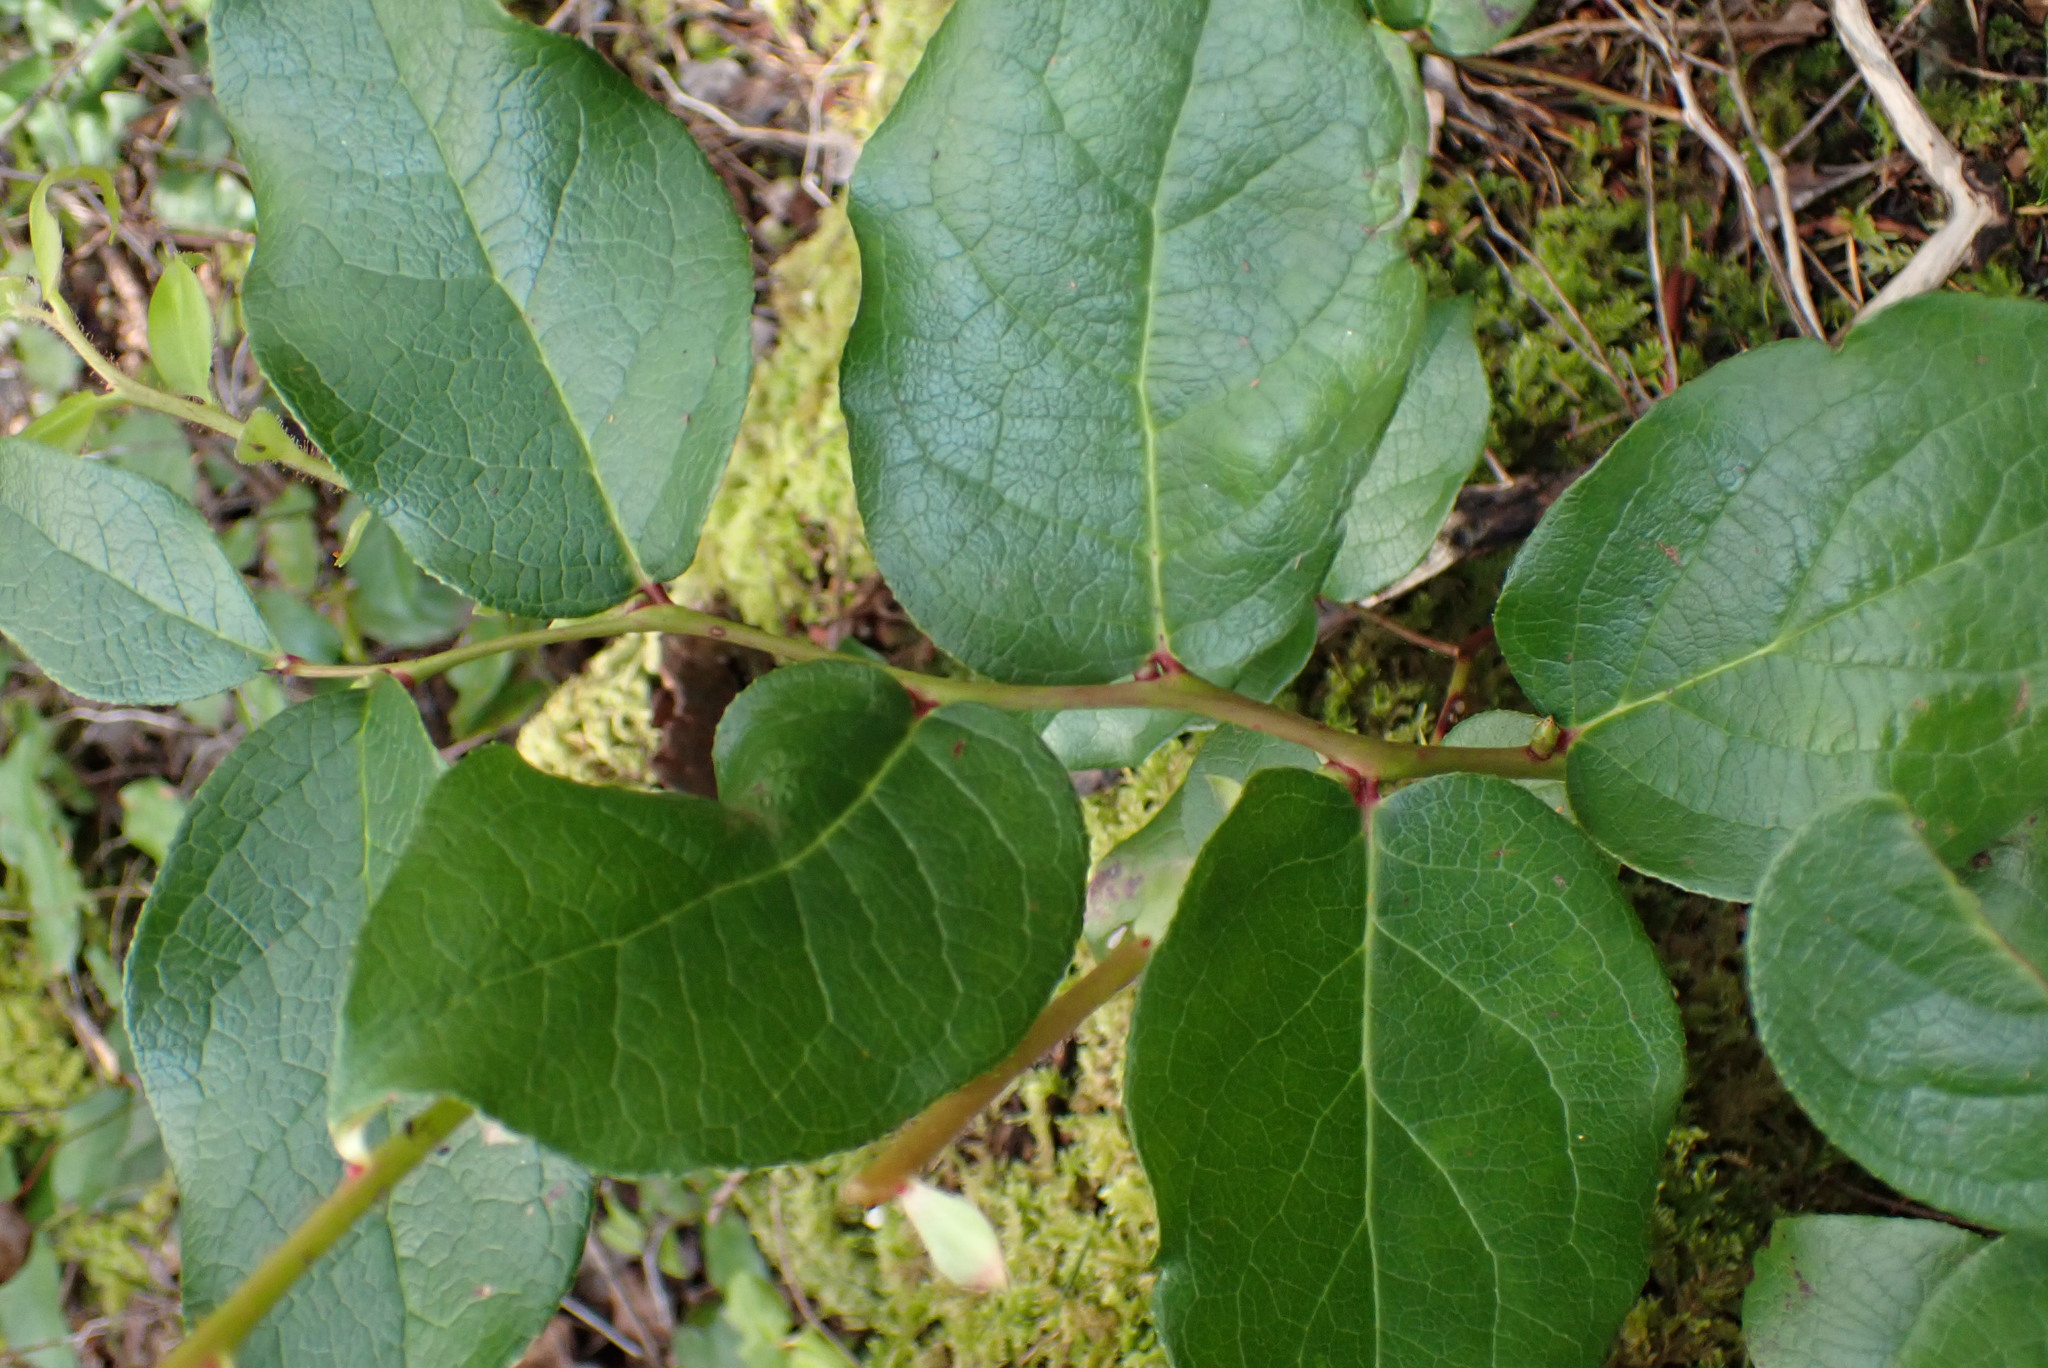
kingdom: Plantae
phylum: Tracheophyta
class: Magnoliopsida
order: Ericales
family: Ericaceae
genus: Gaultheria
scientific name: Gaultheria shallon
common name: Shallon
